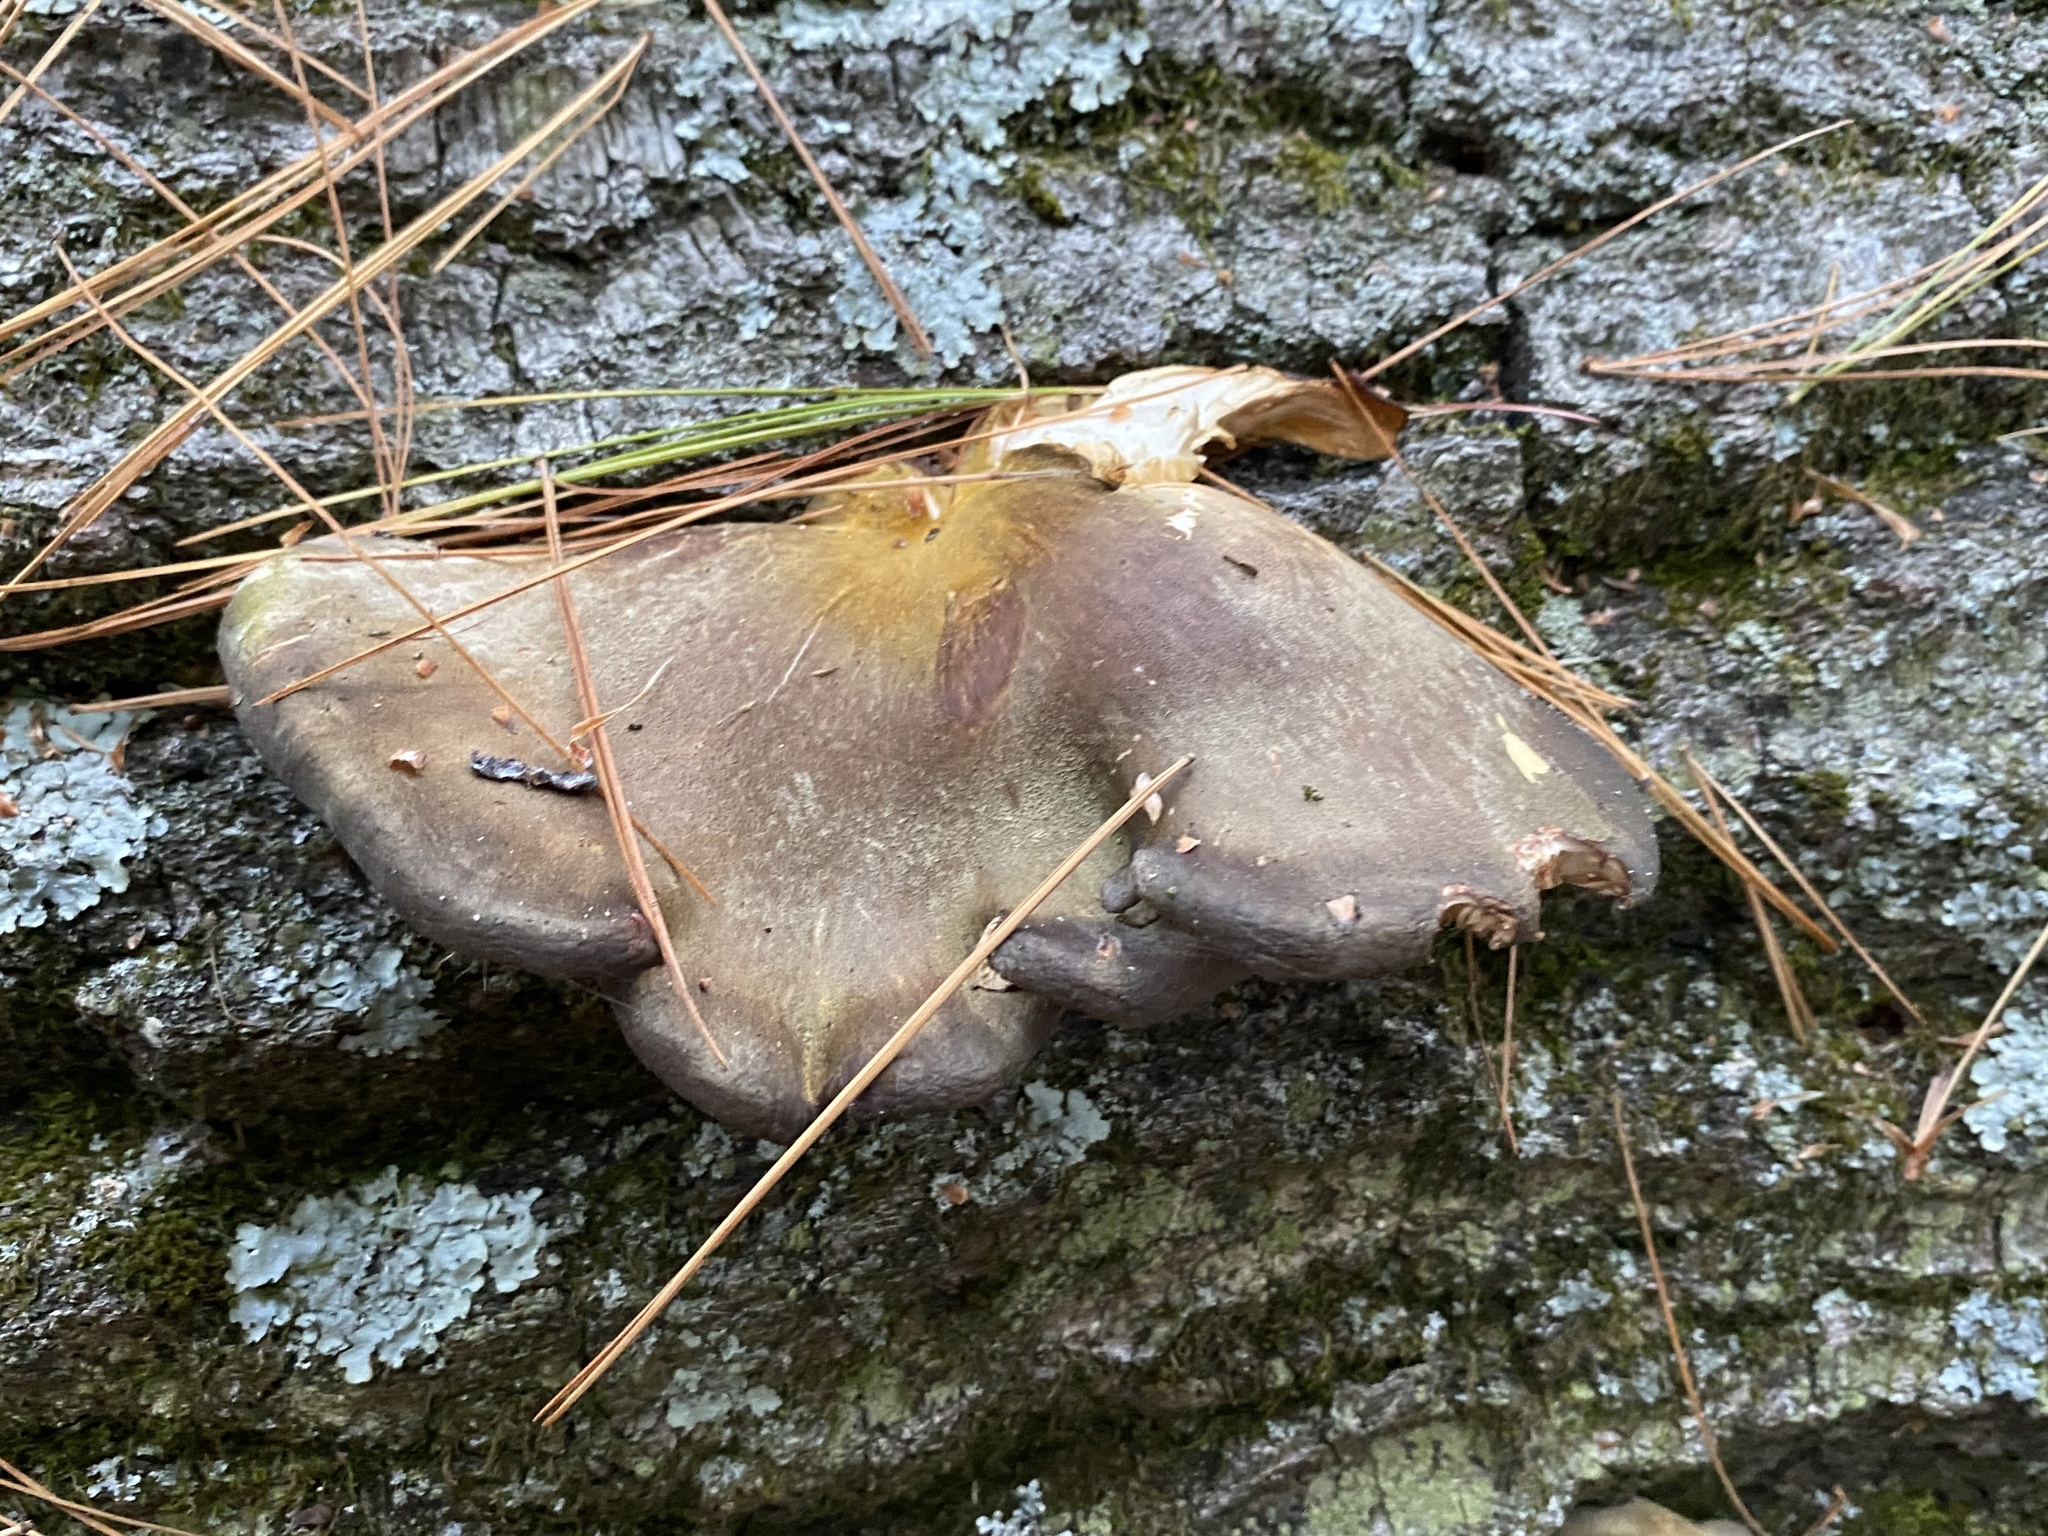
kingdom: Fungi
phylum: Basidiomycota
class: Agaricomycetes
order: Agaricales
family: Sarcomyxaceae
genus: Sarcomyxa
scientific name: Sarcomyxa serotina
